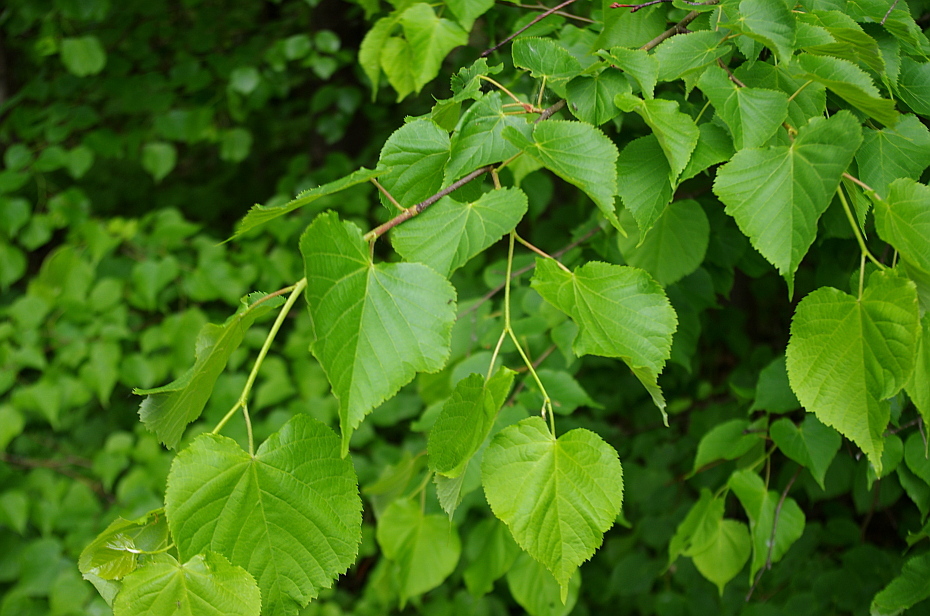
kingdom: Plantae
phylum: Tracheophyta
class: Magnoliopsida
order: Malvales
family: Malvaceae
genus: Tilia
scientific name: Tilia cordata
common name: Small-leaved lime
